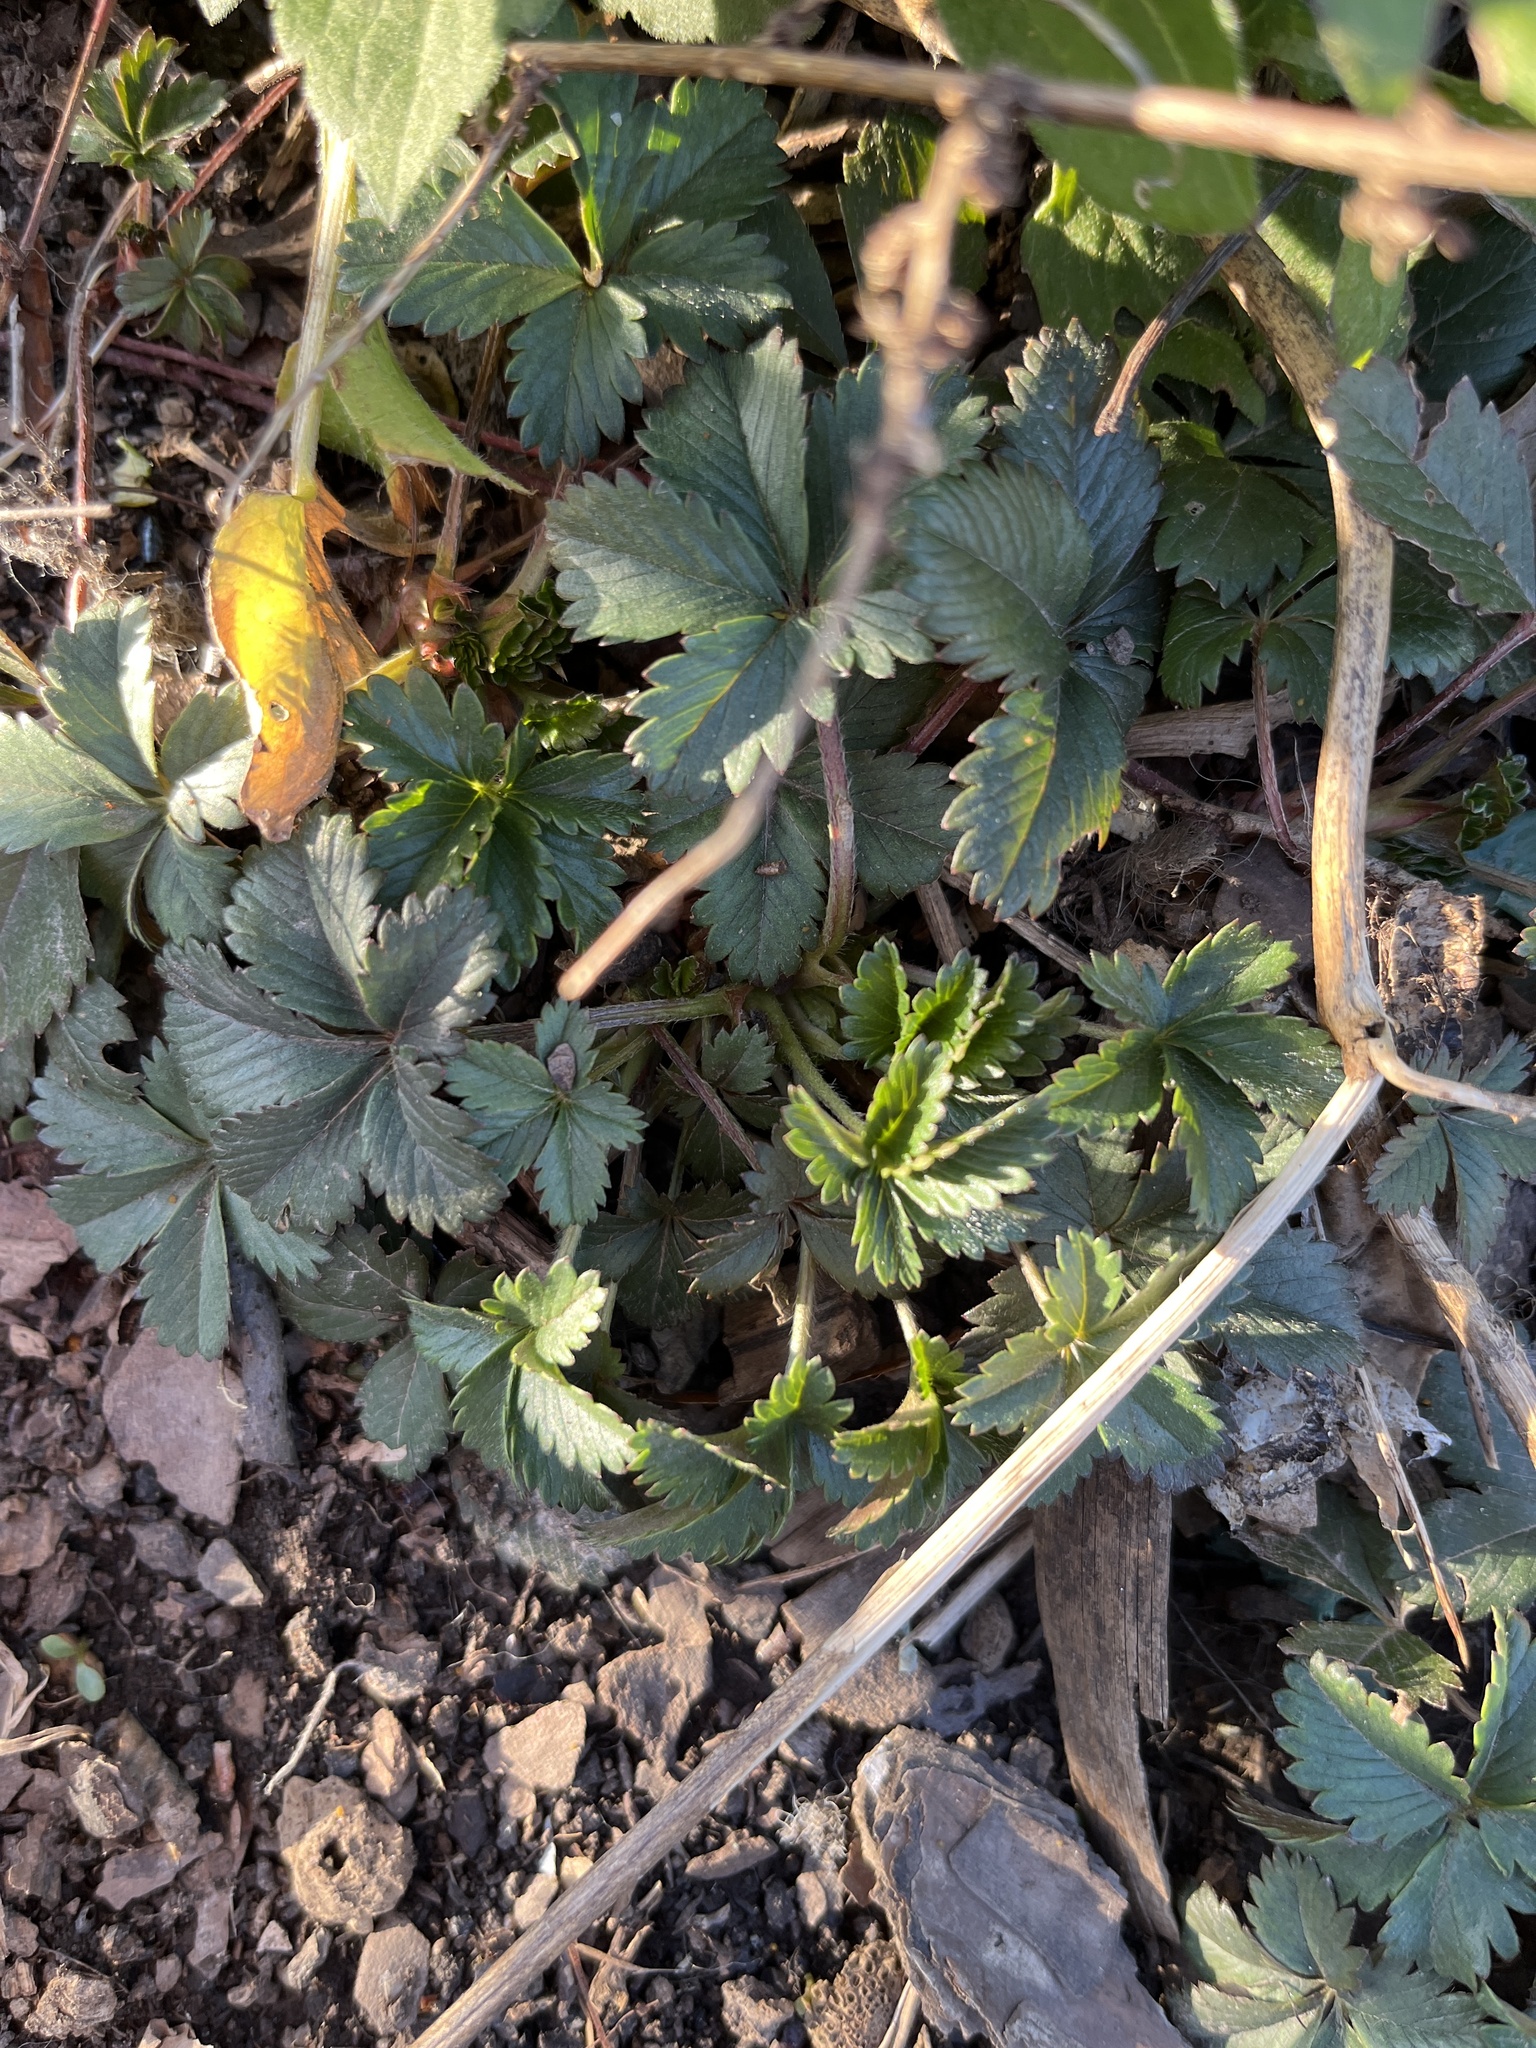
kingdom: Plantae
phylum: Tracheophyta
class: Magnoliopsida
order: Rosales
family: Rosaceae
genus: Potentilla
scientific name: Potentilla simplex
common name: Old field cinquefoil
